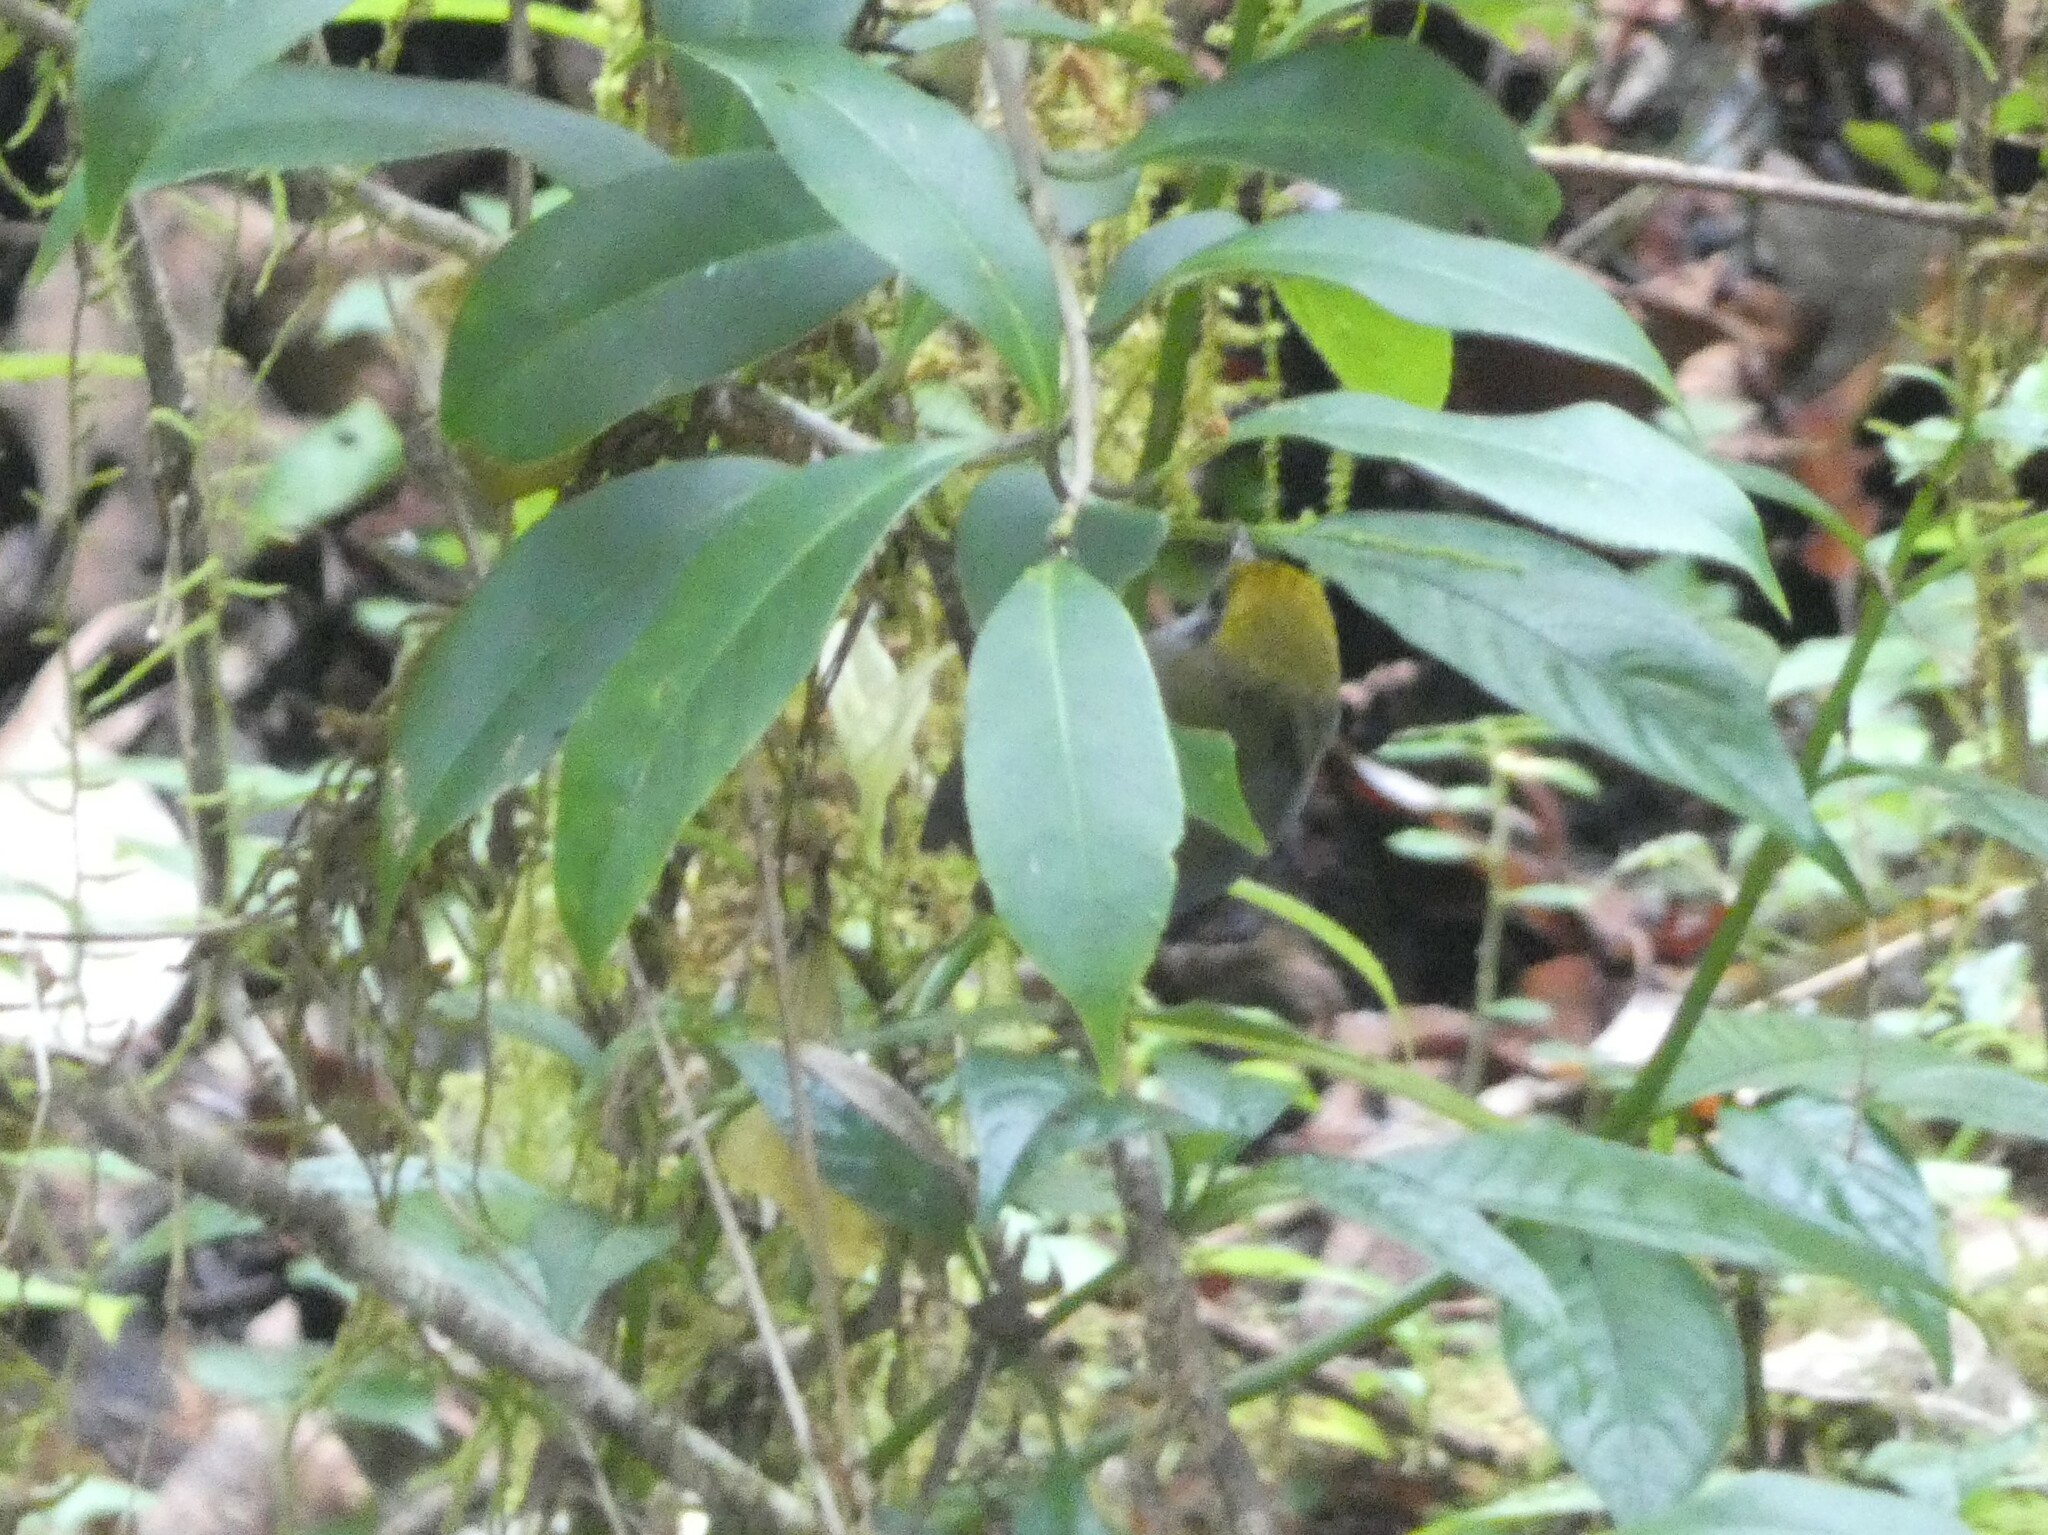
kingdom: Animalia
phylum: Chordata
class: Aves
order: Passeriformes
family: Cettiidae
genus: Tesia
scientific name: Tesia olivea
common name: Slaty-bellied tesia
